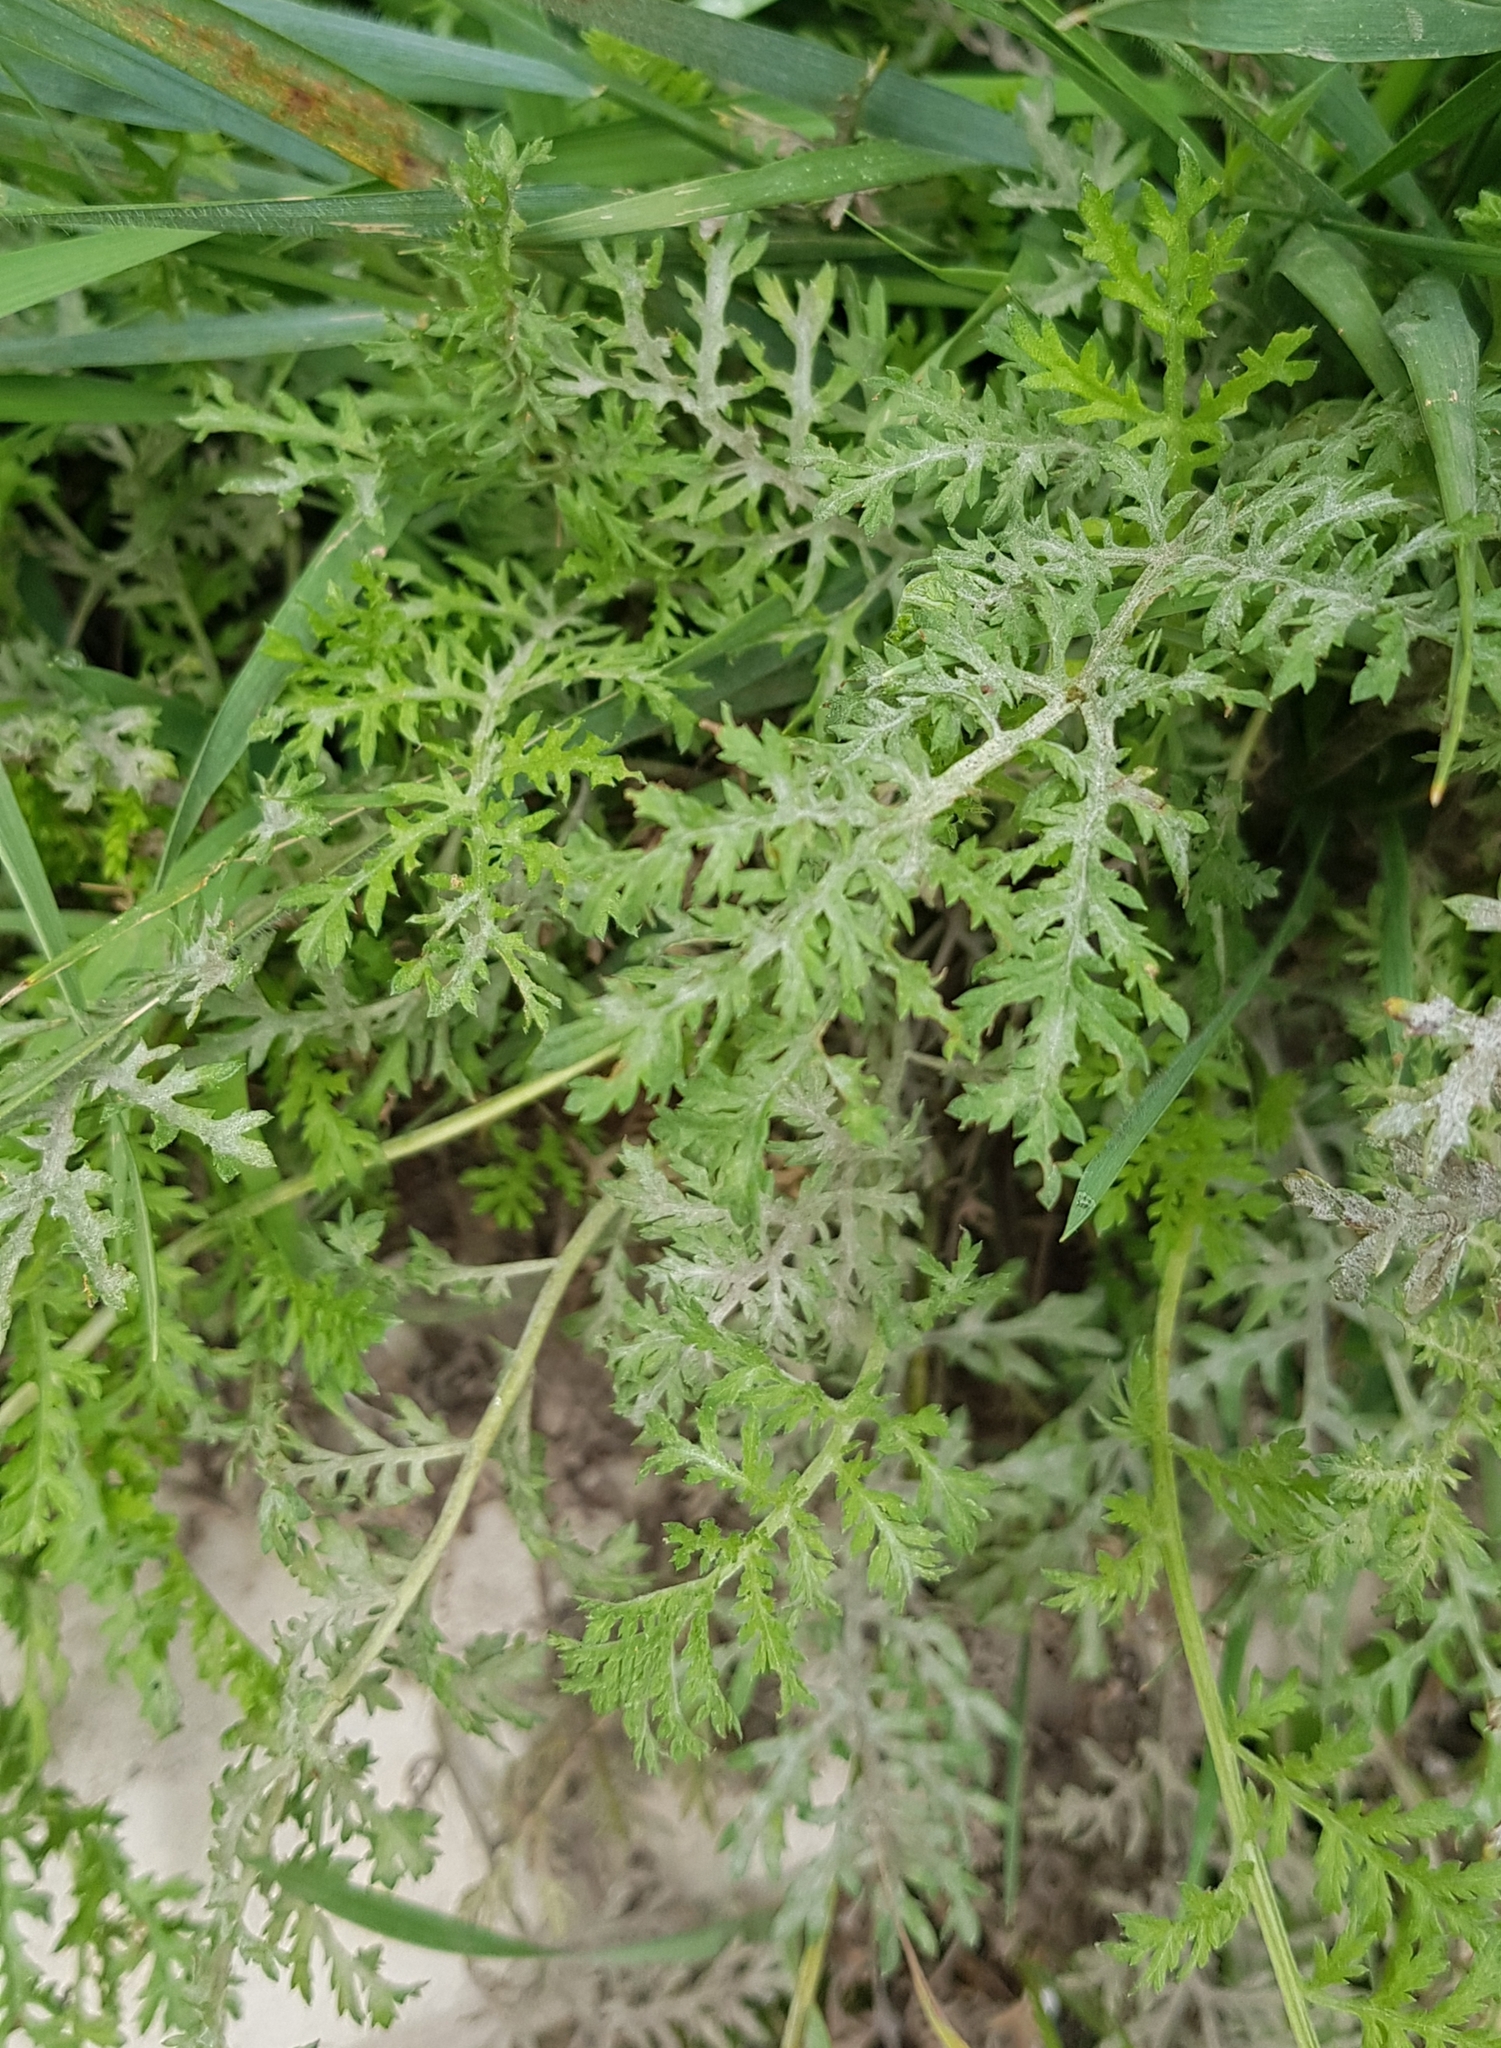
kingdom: Plantae
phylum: Tracheophyta
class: Magnoliopsida
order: Asterales
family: Asteraceae
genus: Artemisia
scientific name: Artemisia sieversiana
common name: Sieversian wormwood
